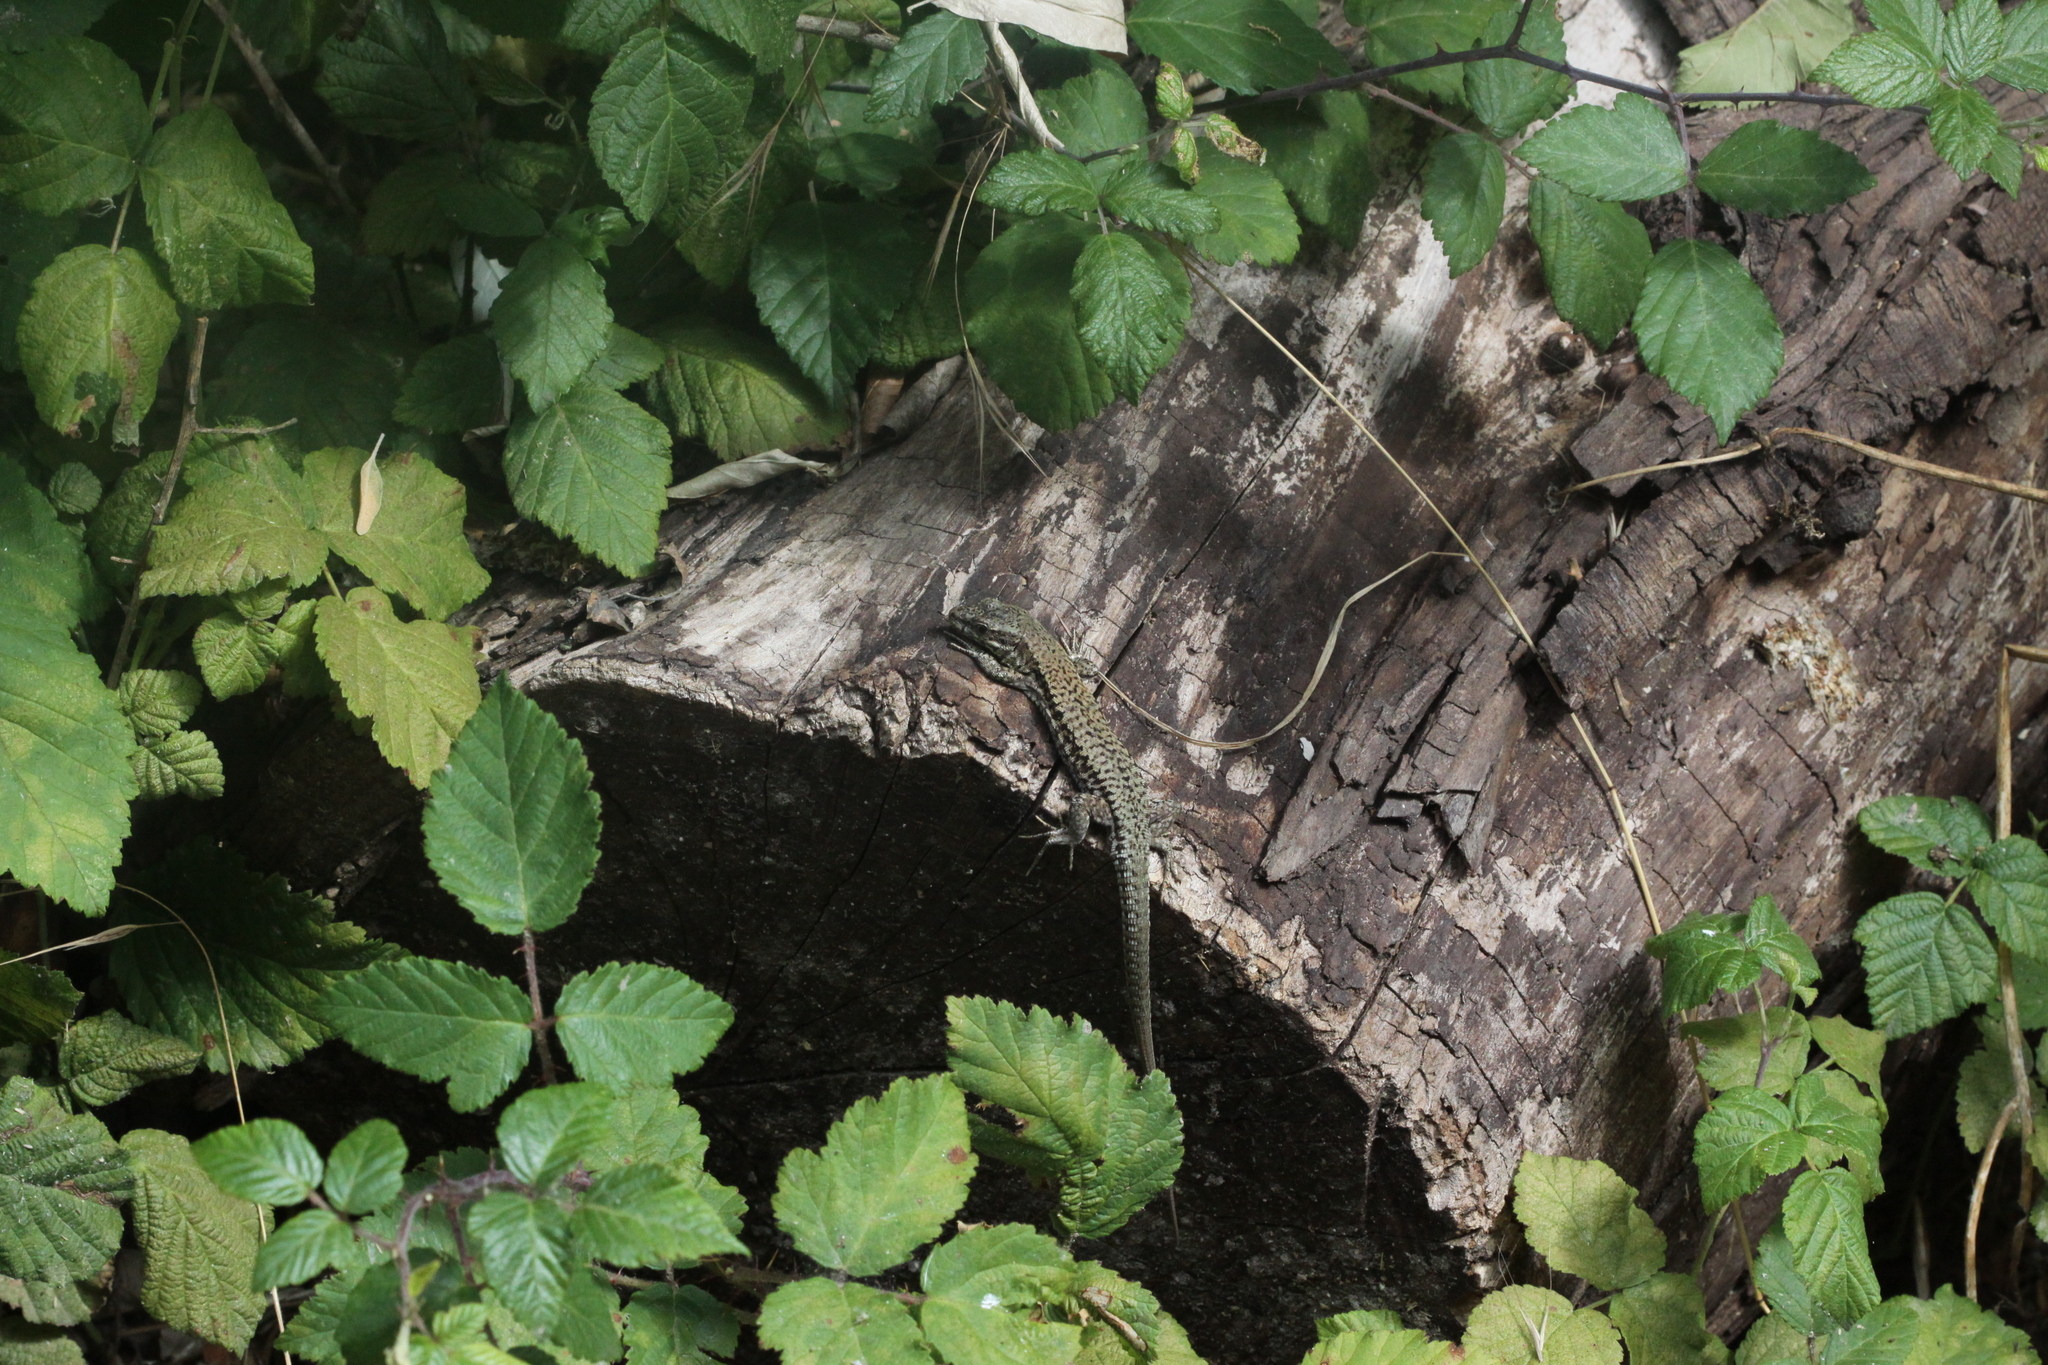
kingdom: Animalia
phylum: Chordata
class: Squamata
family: Lacertidae
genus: Podarcis
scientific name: Podarcis muralis
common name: Common wall lizard
